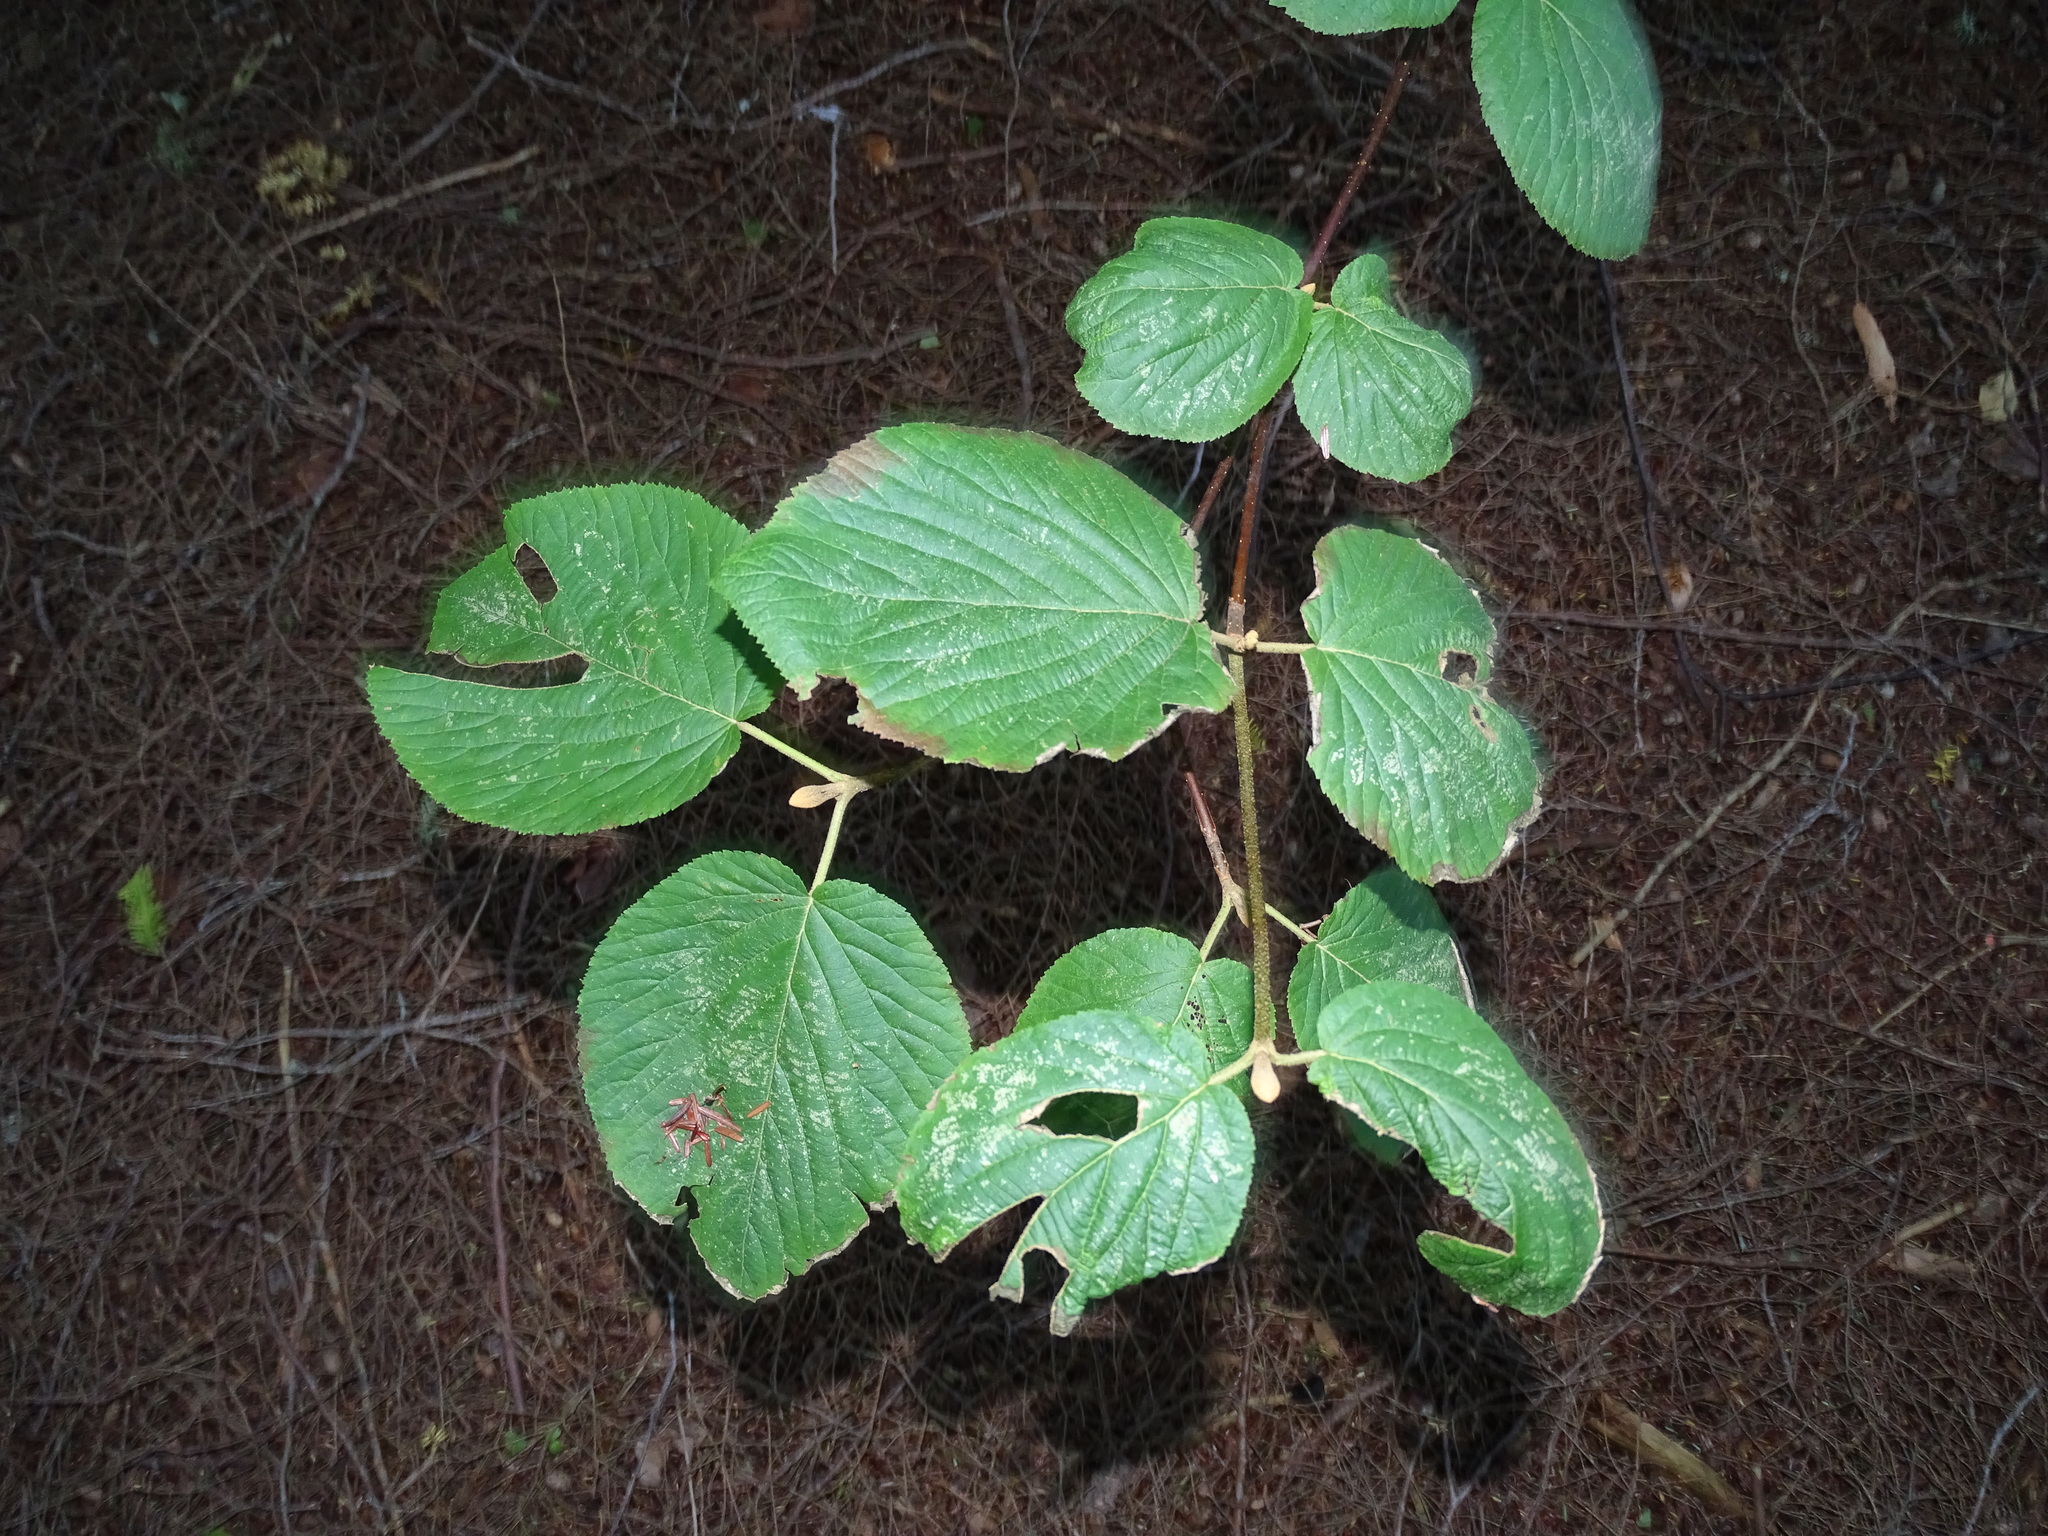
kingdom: Plantae
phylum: Tracheophyta
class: Magnoliopsida
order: Dipsacales
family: Viburnaceae
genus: Viburnum
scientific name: Viburnum lantanoides
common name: Hobblebush
